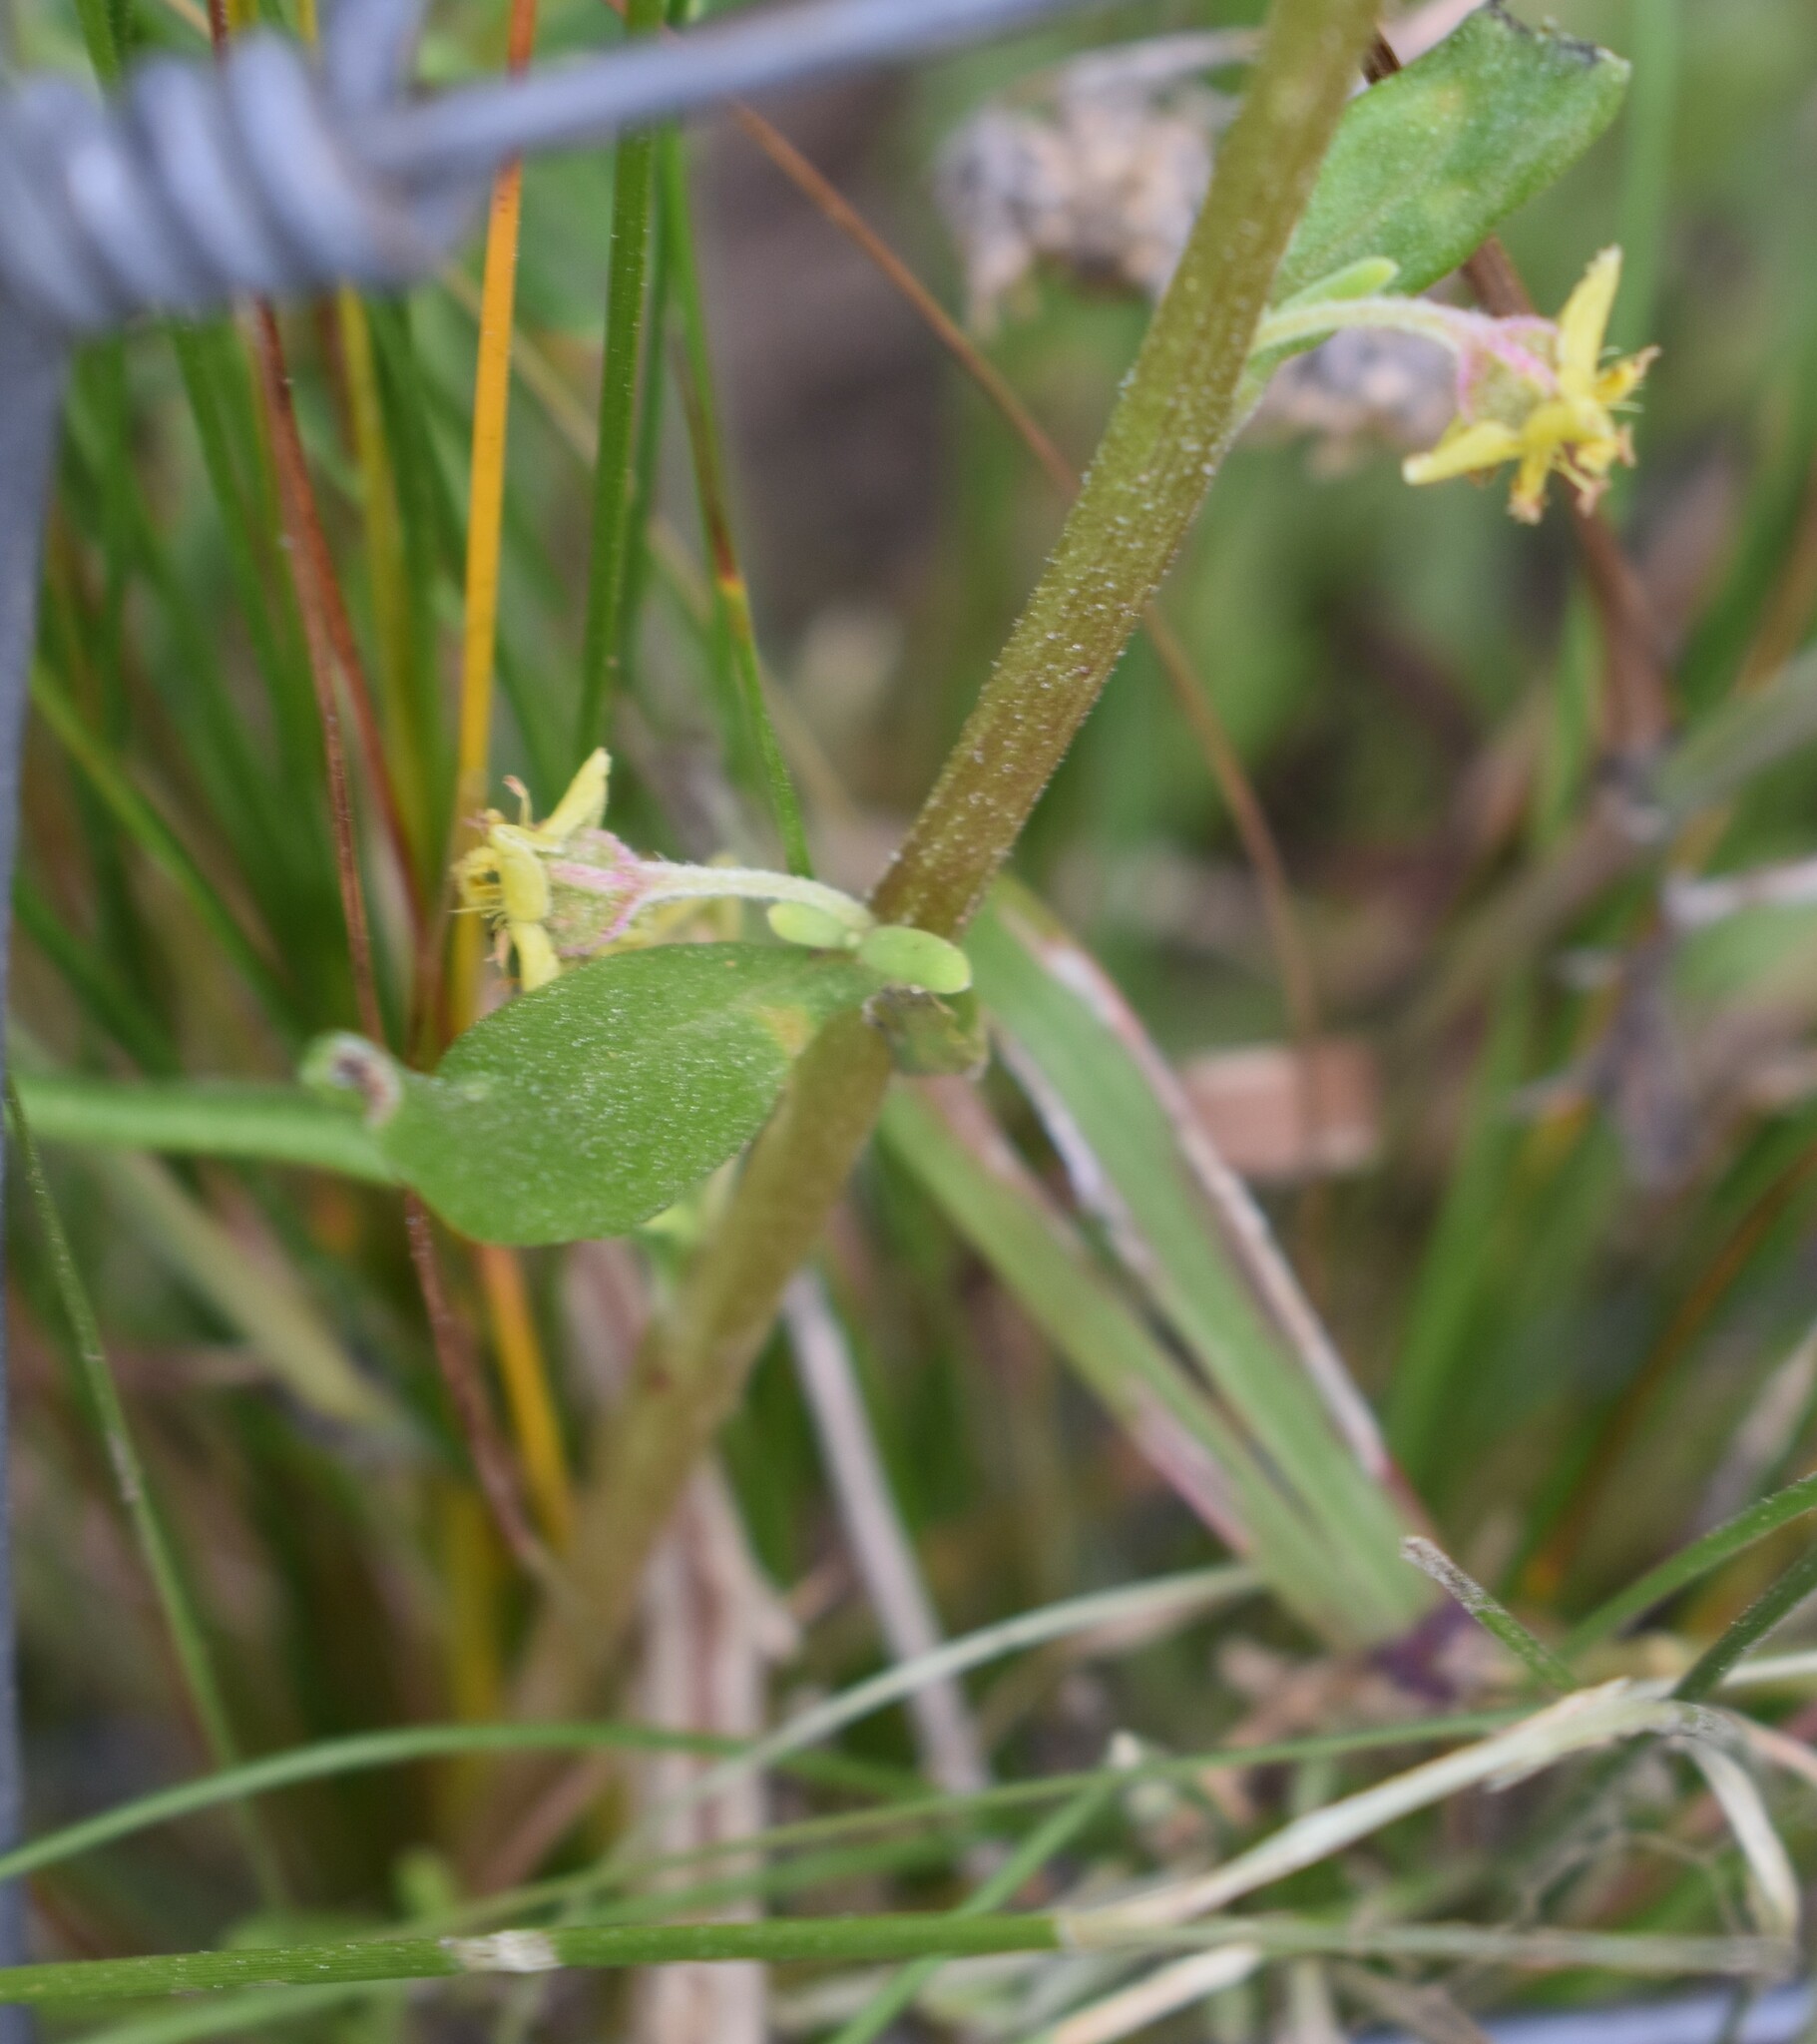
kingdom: Plantae
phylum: Tracheophyta
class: Magnoliopsida
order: Caryophyllales
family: Aizoaceae
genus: Tetragonia
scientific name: Tetragonia fruticosa
